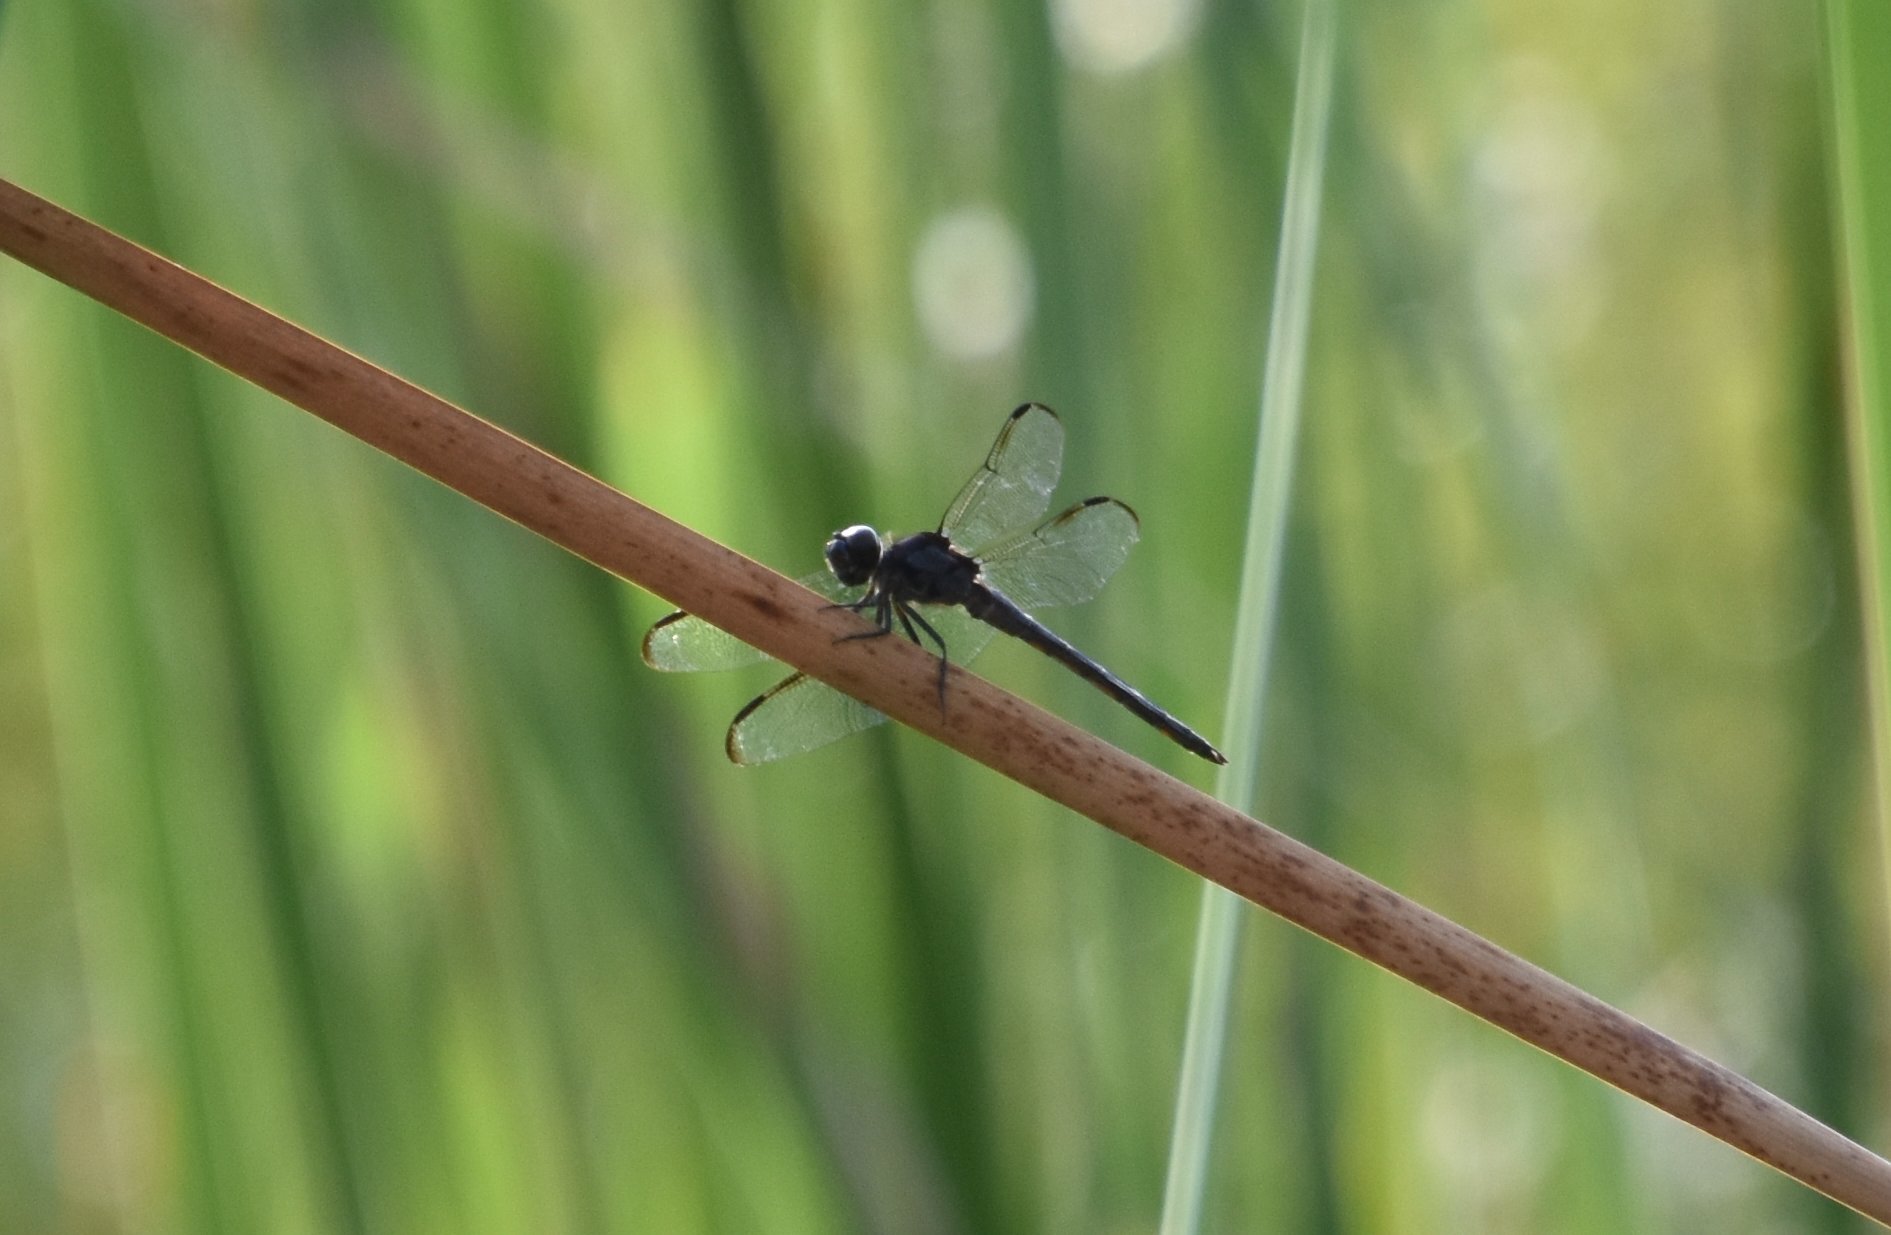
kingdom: Animalia
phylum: Arthropoda
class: Insecta
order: Odonata
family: Libellulidae
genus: Libellula
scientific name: Libellula incesta
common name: Slaty skimmer
